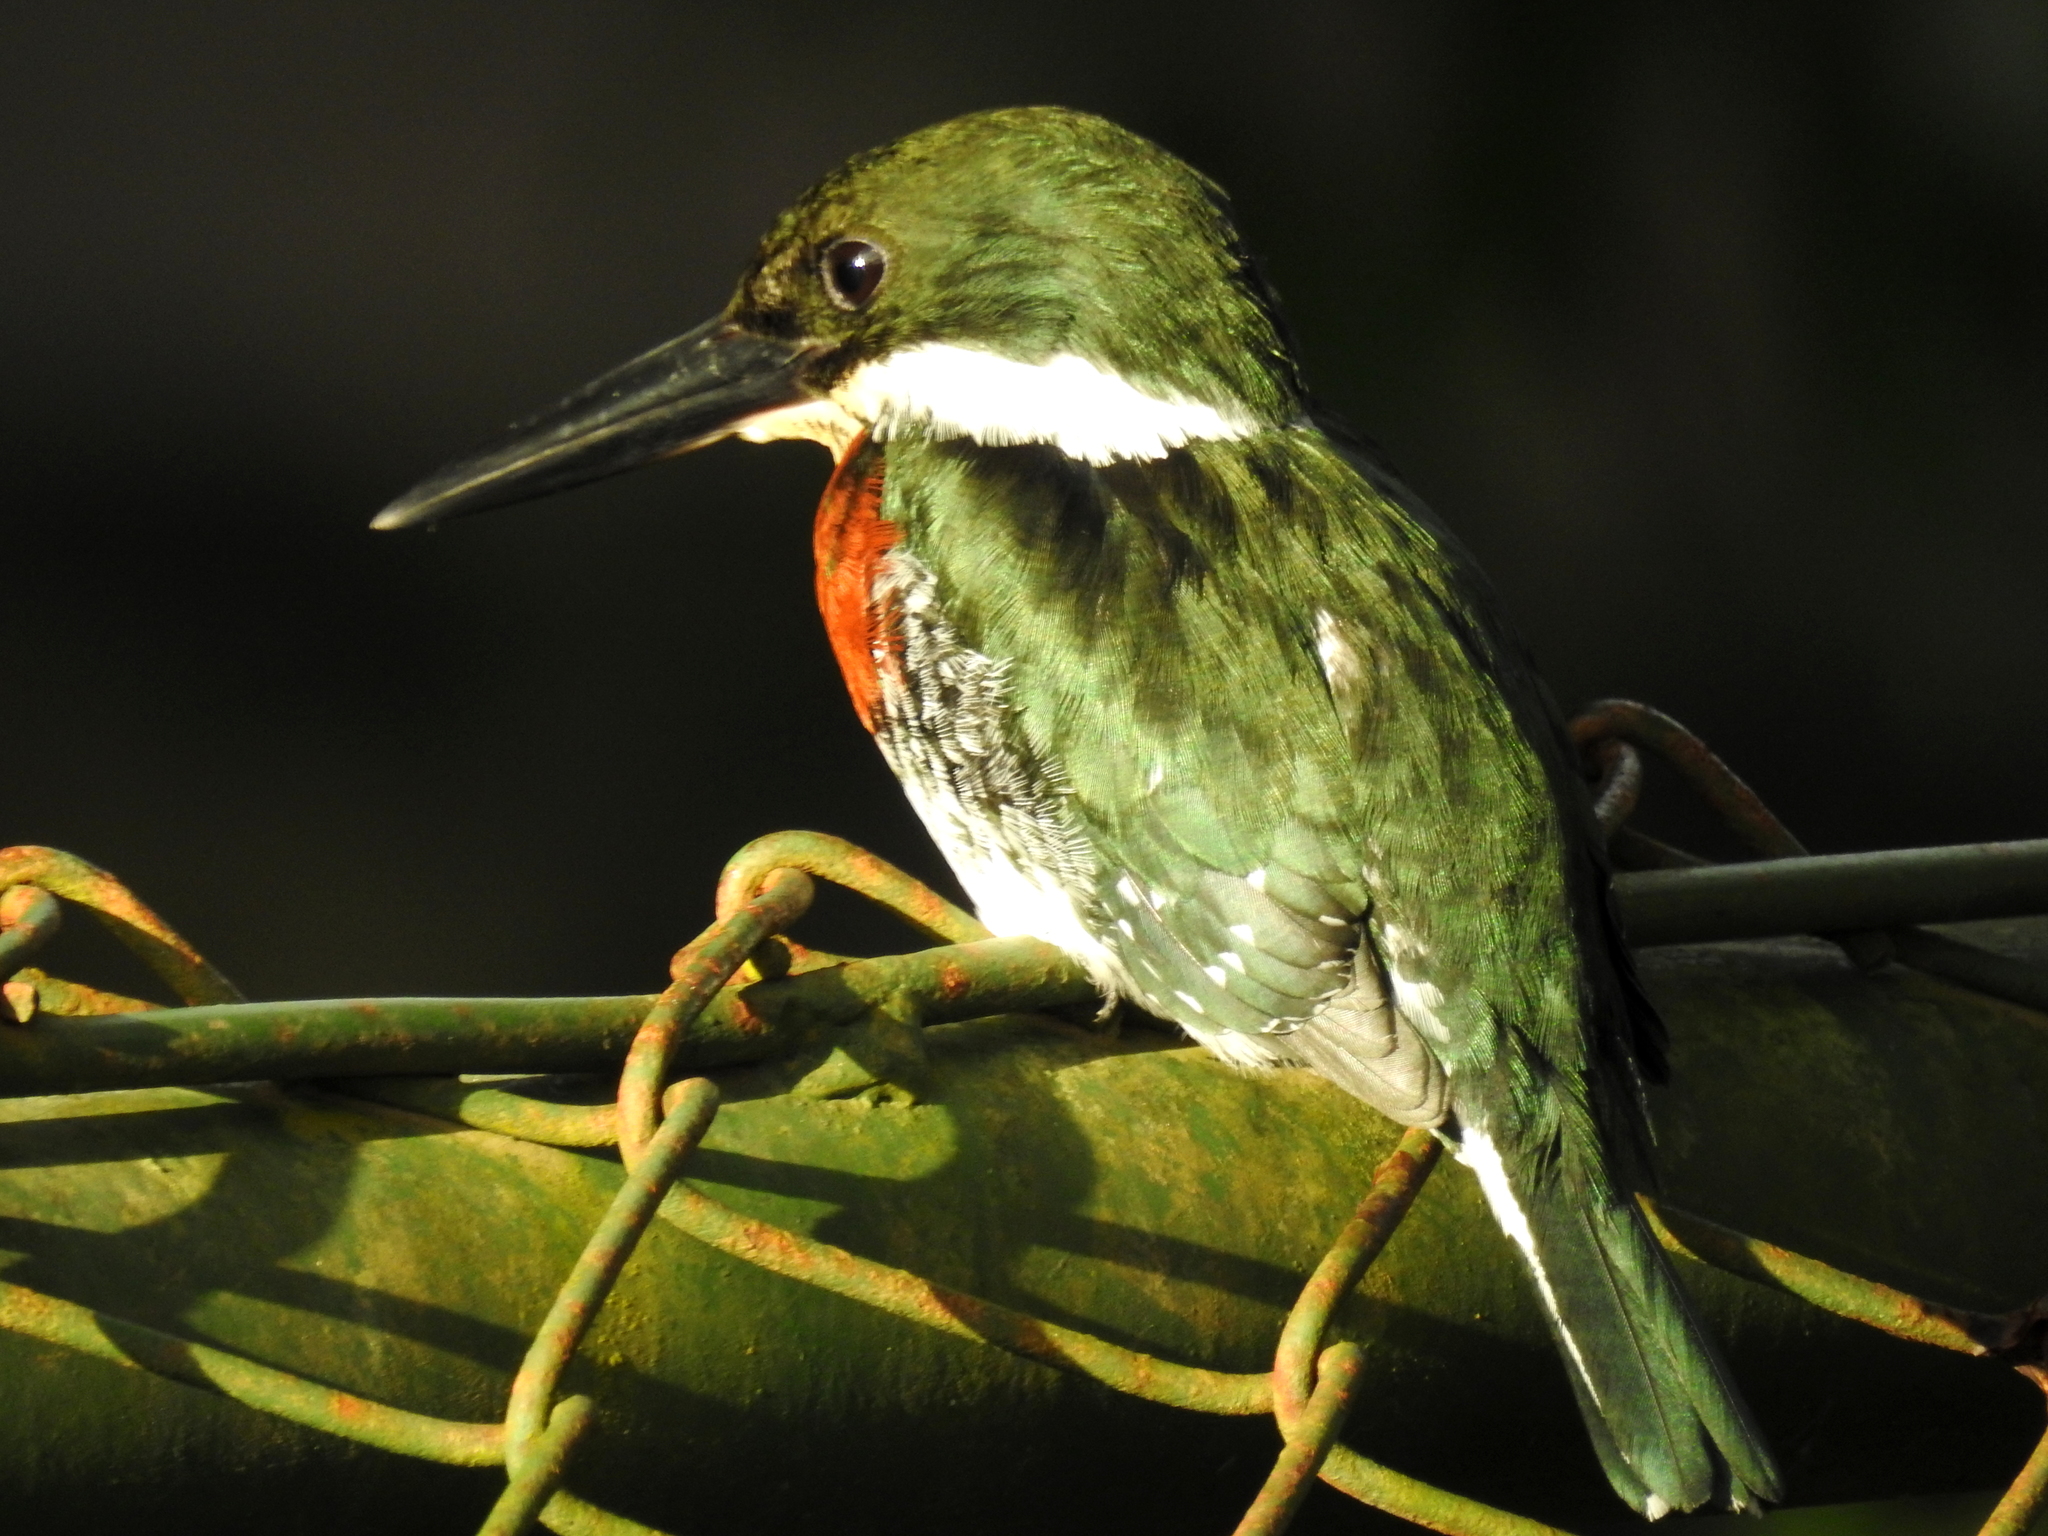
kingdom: Animalia
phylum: Chordata
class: Aves
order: Coraciiformes
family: Alcedinidae
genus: Chloroceryle
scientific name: Chloroceryle americana
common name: Green kingfisher
